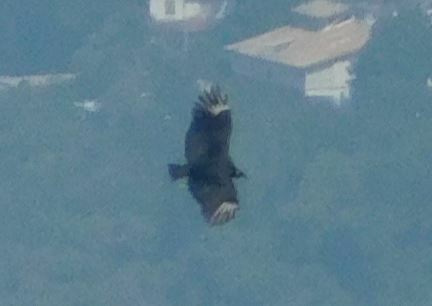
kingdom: Animalia
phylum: Chordata
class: Aves
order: Accipitriformes
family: Cathartidae
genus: Coragyps
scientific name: Coragyps atratus
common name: Black vulture
